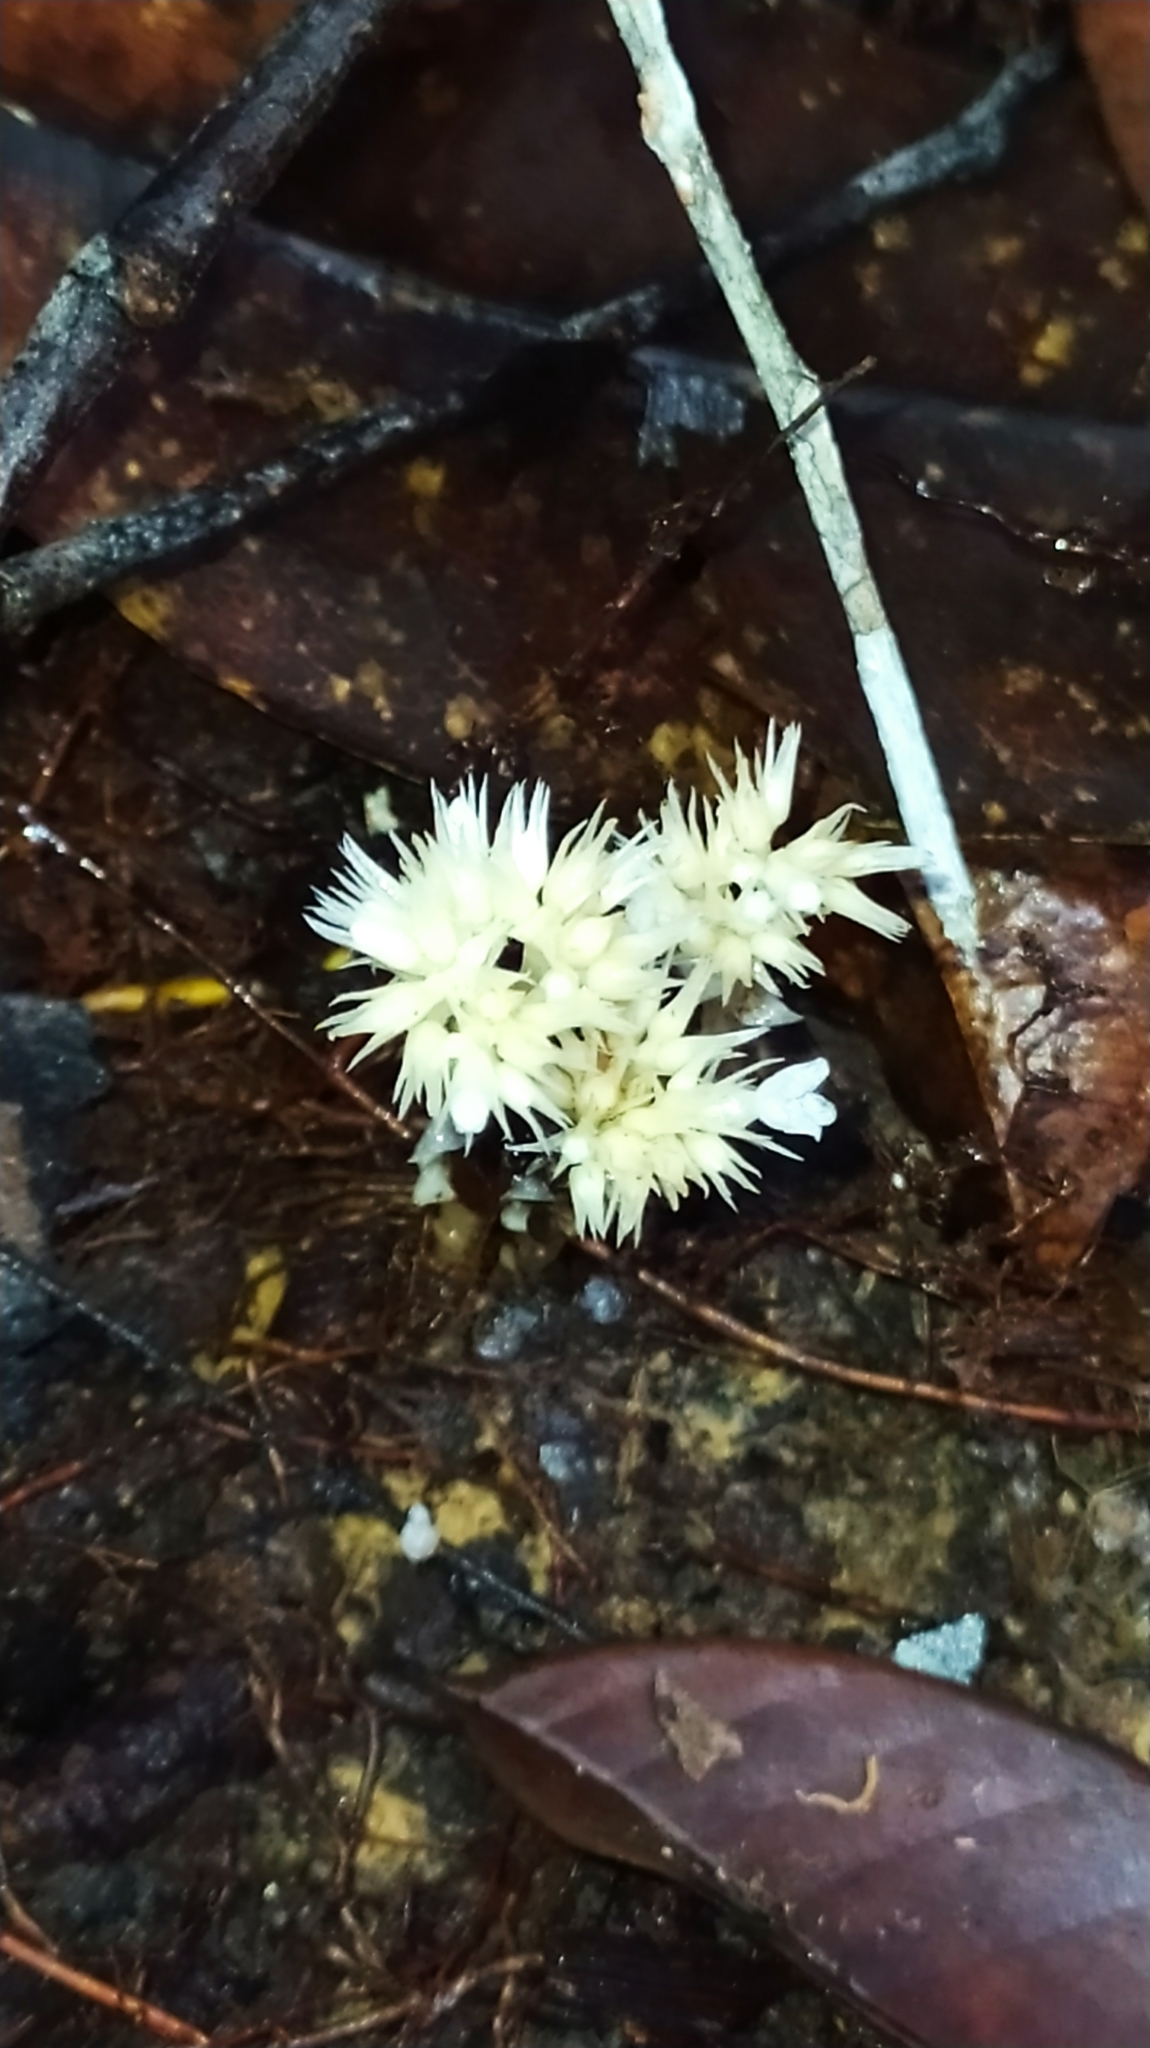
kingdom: Plantae
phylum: Tracheophyta
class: Magnoliopsida
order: Gentianales
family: Gentianaceae
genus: Voyriella
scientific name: Voyriella parviflora
